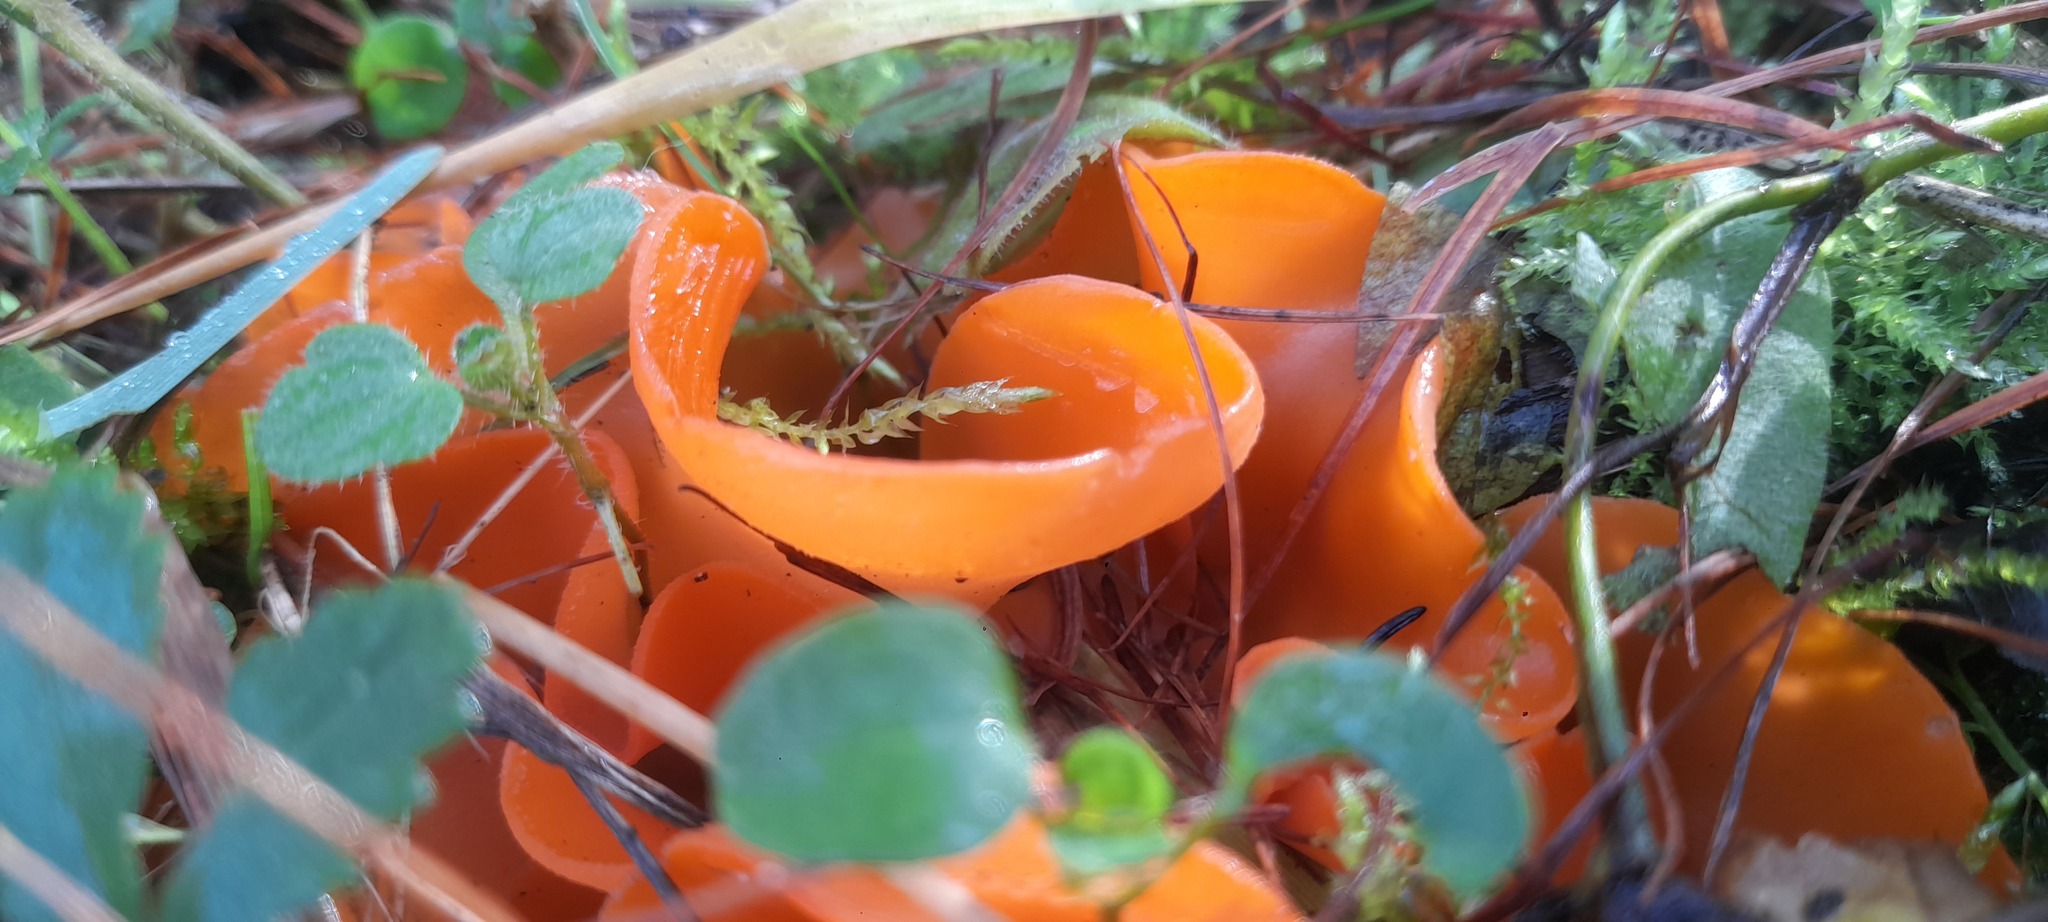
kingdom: Fungi
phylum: Ascomycota
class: Pezizomycetes
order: Pezizales
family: Pyronemataceae
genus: Aleuria
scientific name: Aleuria aurantia
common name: Orange peel fungus
